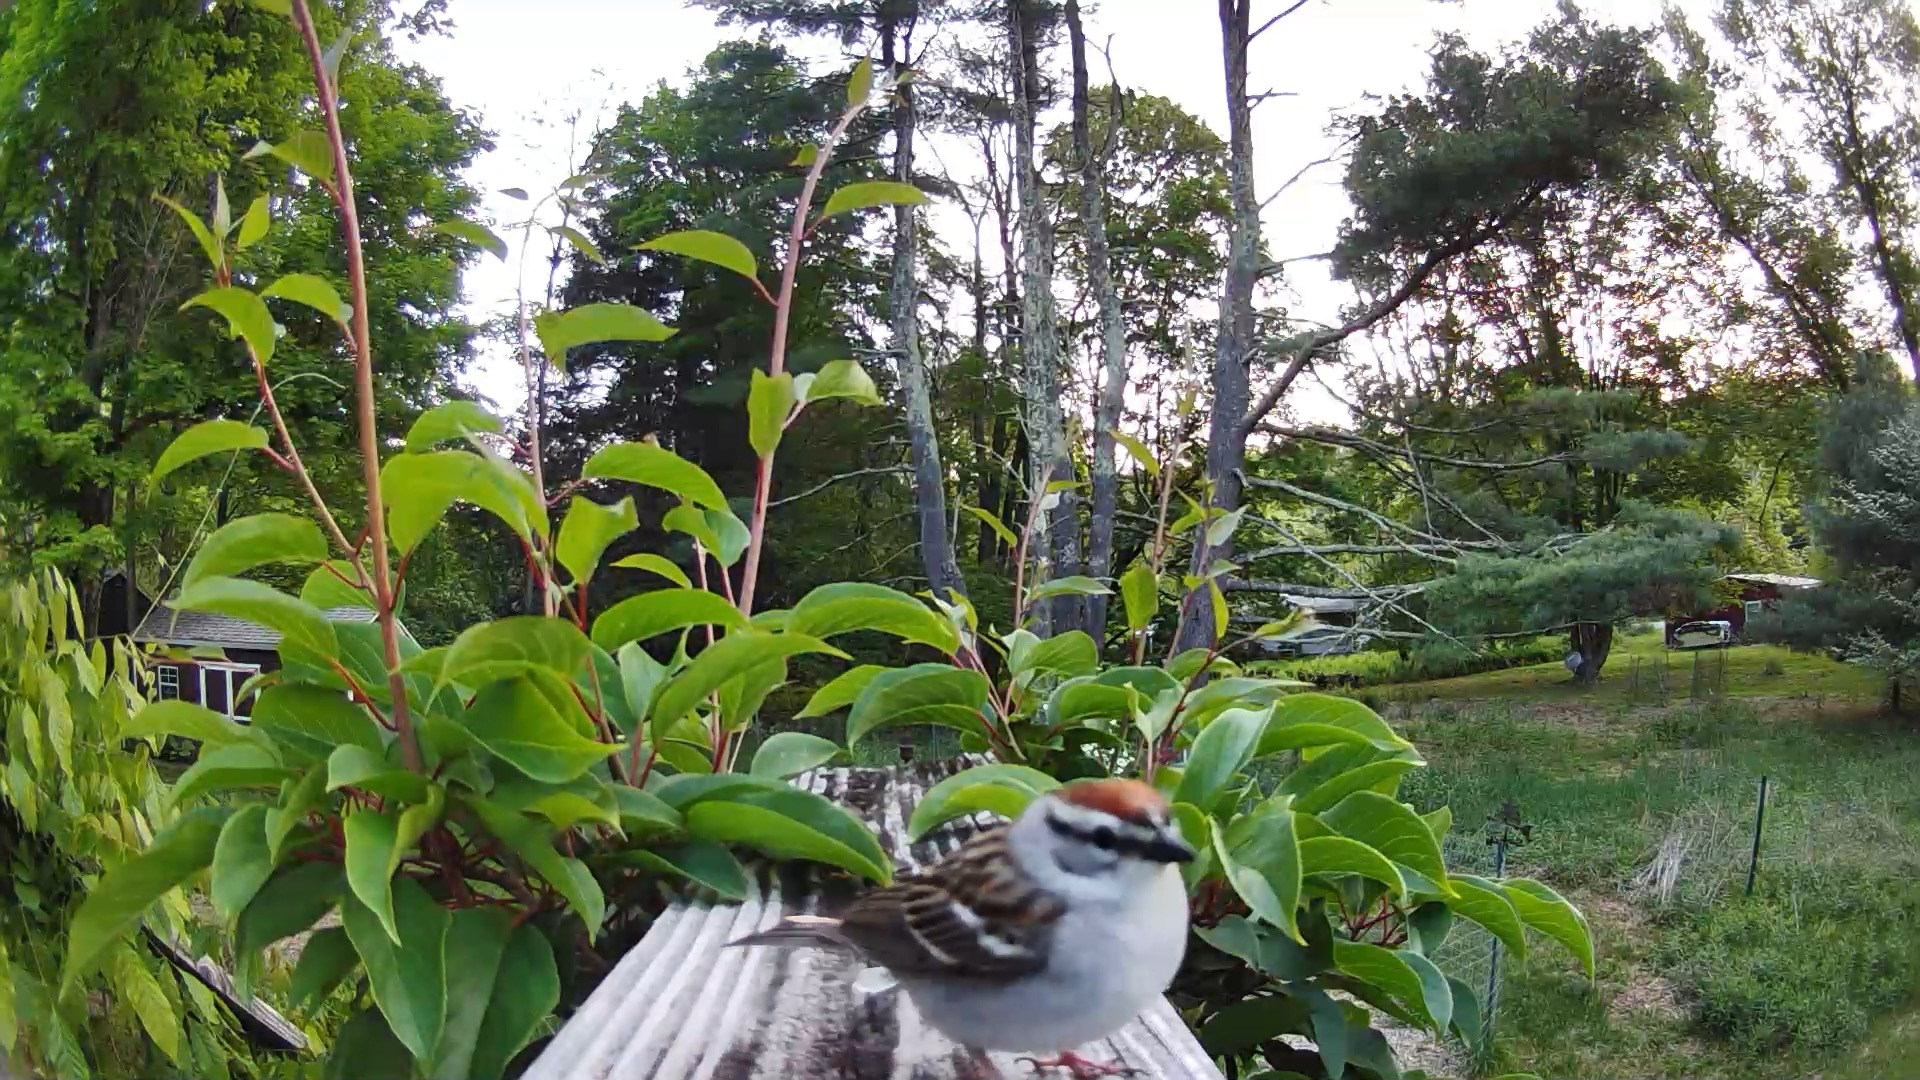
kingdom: Animalia
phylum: Chordata
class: Aves
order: Passeriformes
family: Passerellidae
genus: Spizella
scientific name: Spizella passerina
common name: Chipping sparrow
